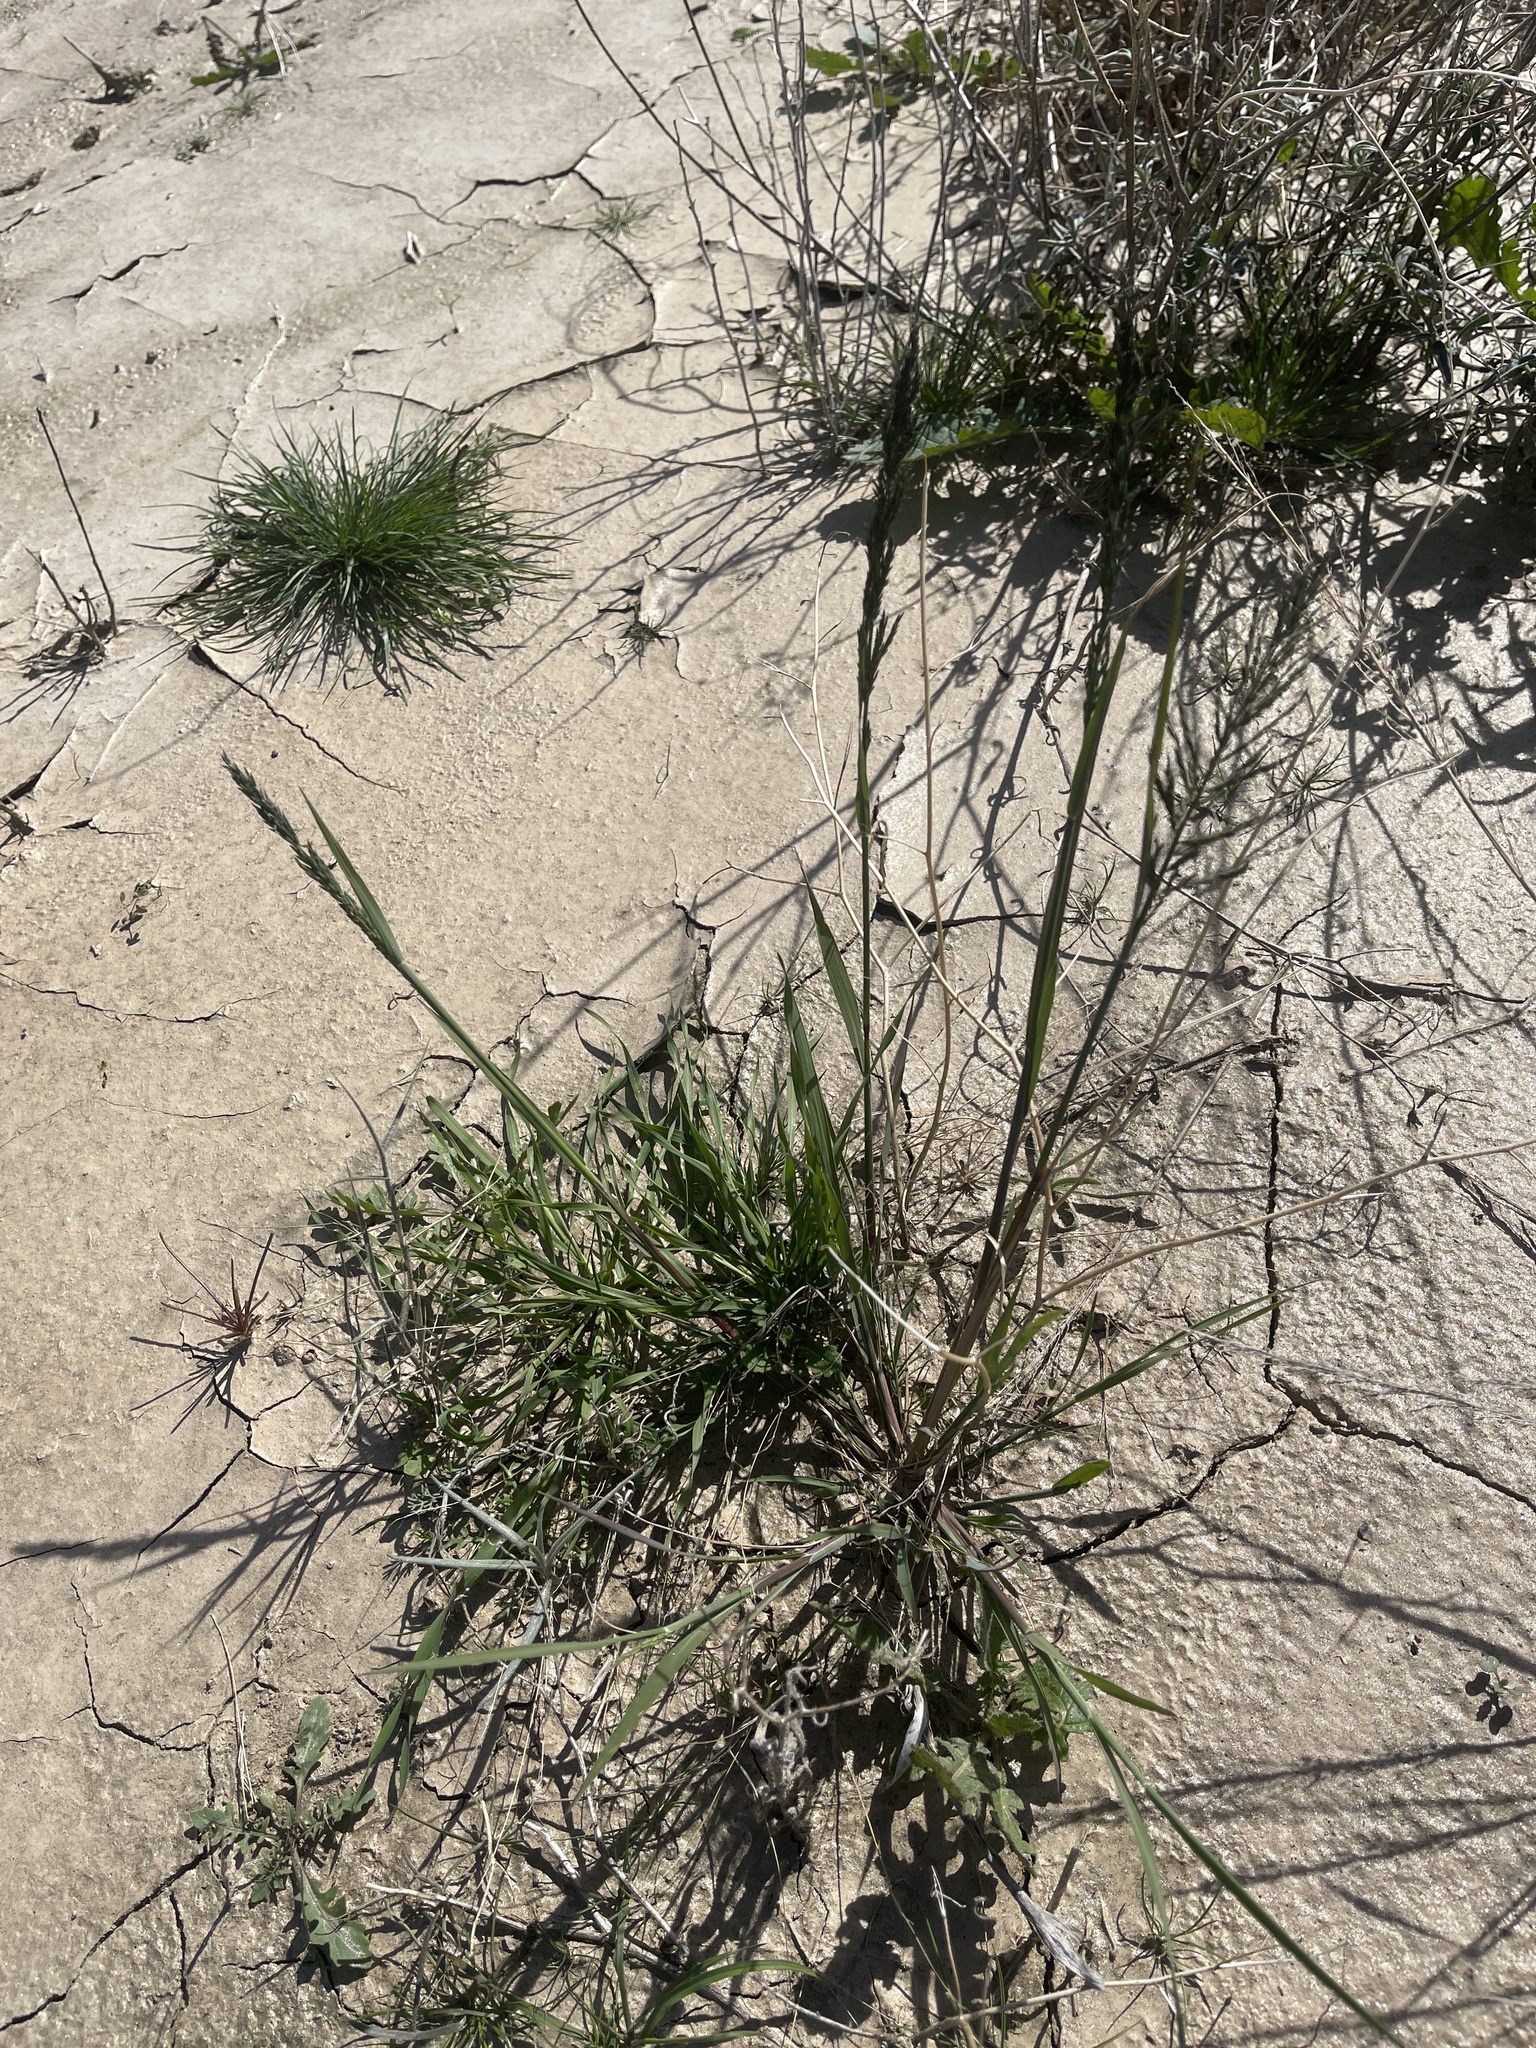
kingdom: Plantae
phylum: Tracheophyta
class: Liliopsida
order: Poales
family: Poaceae
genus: Diplachne
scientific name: Diplachne fusca
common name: Brown beetle grass
